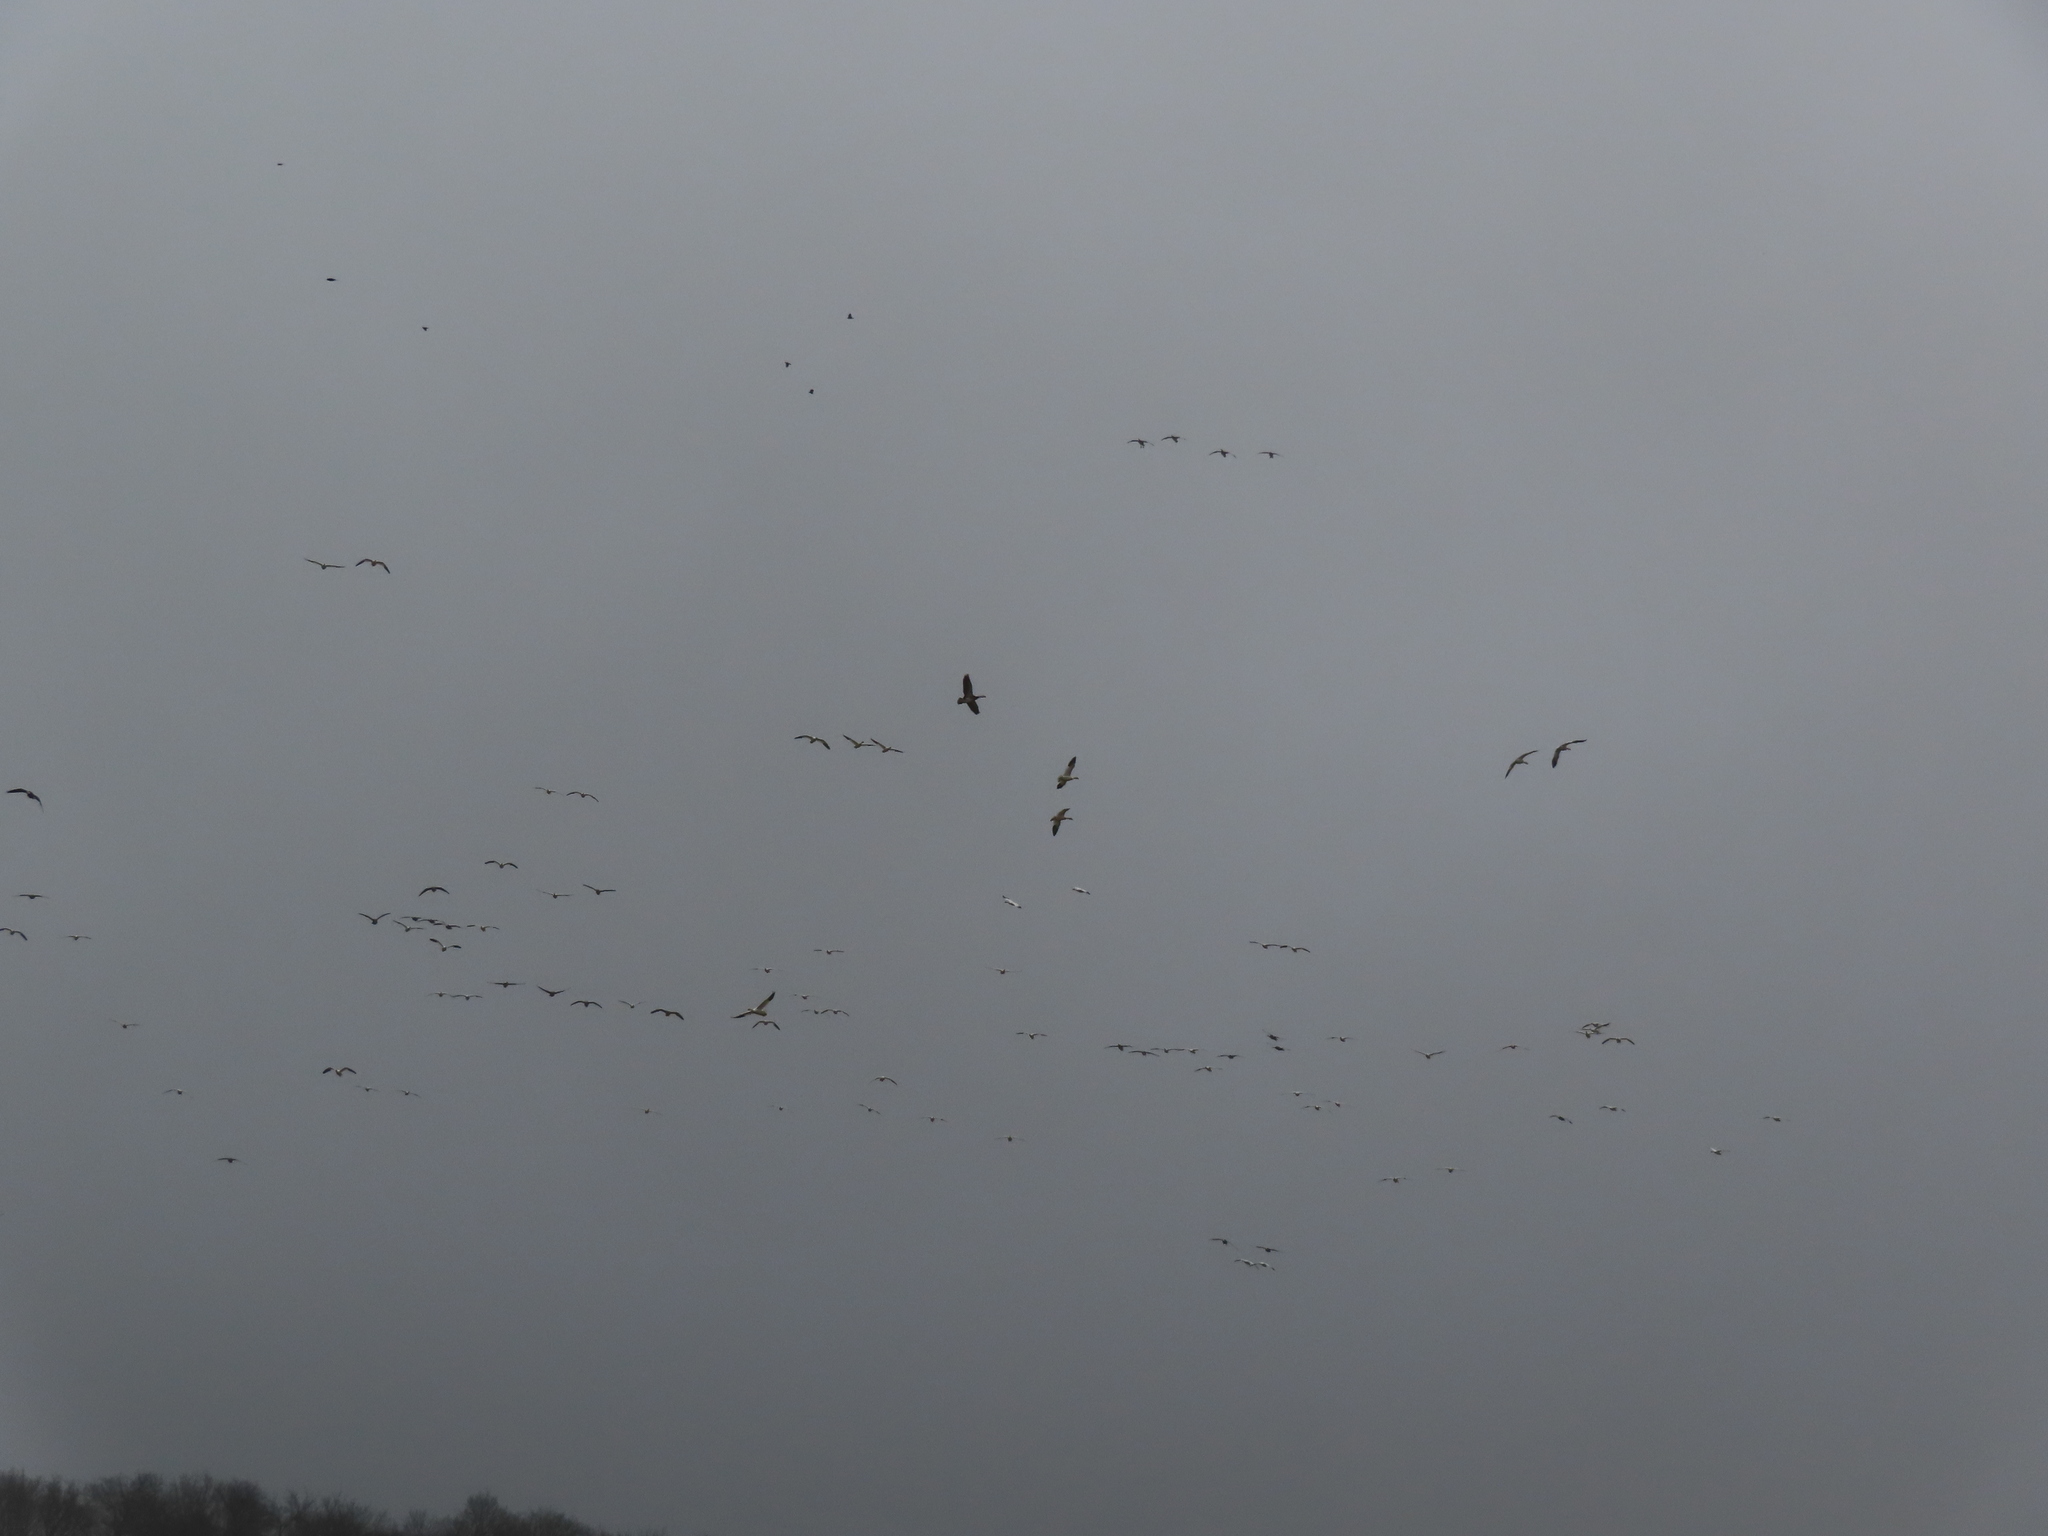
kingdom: Animalia
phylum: Chordata
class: Aves
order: Anseriformes
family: Anatidae
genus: Anser
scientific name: Anser caerulescens
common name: Snow goose
